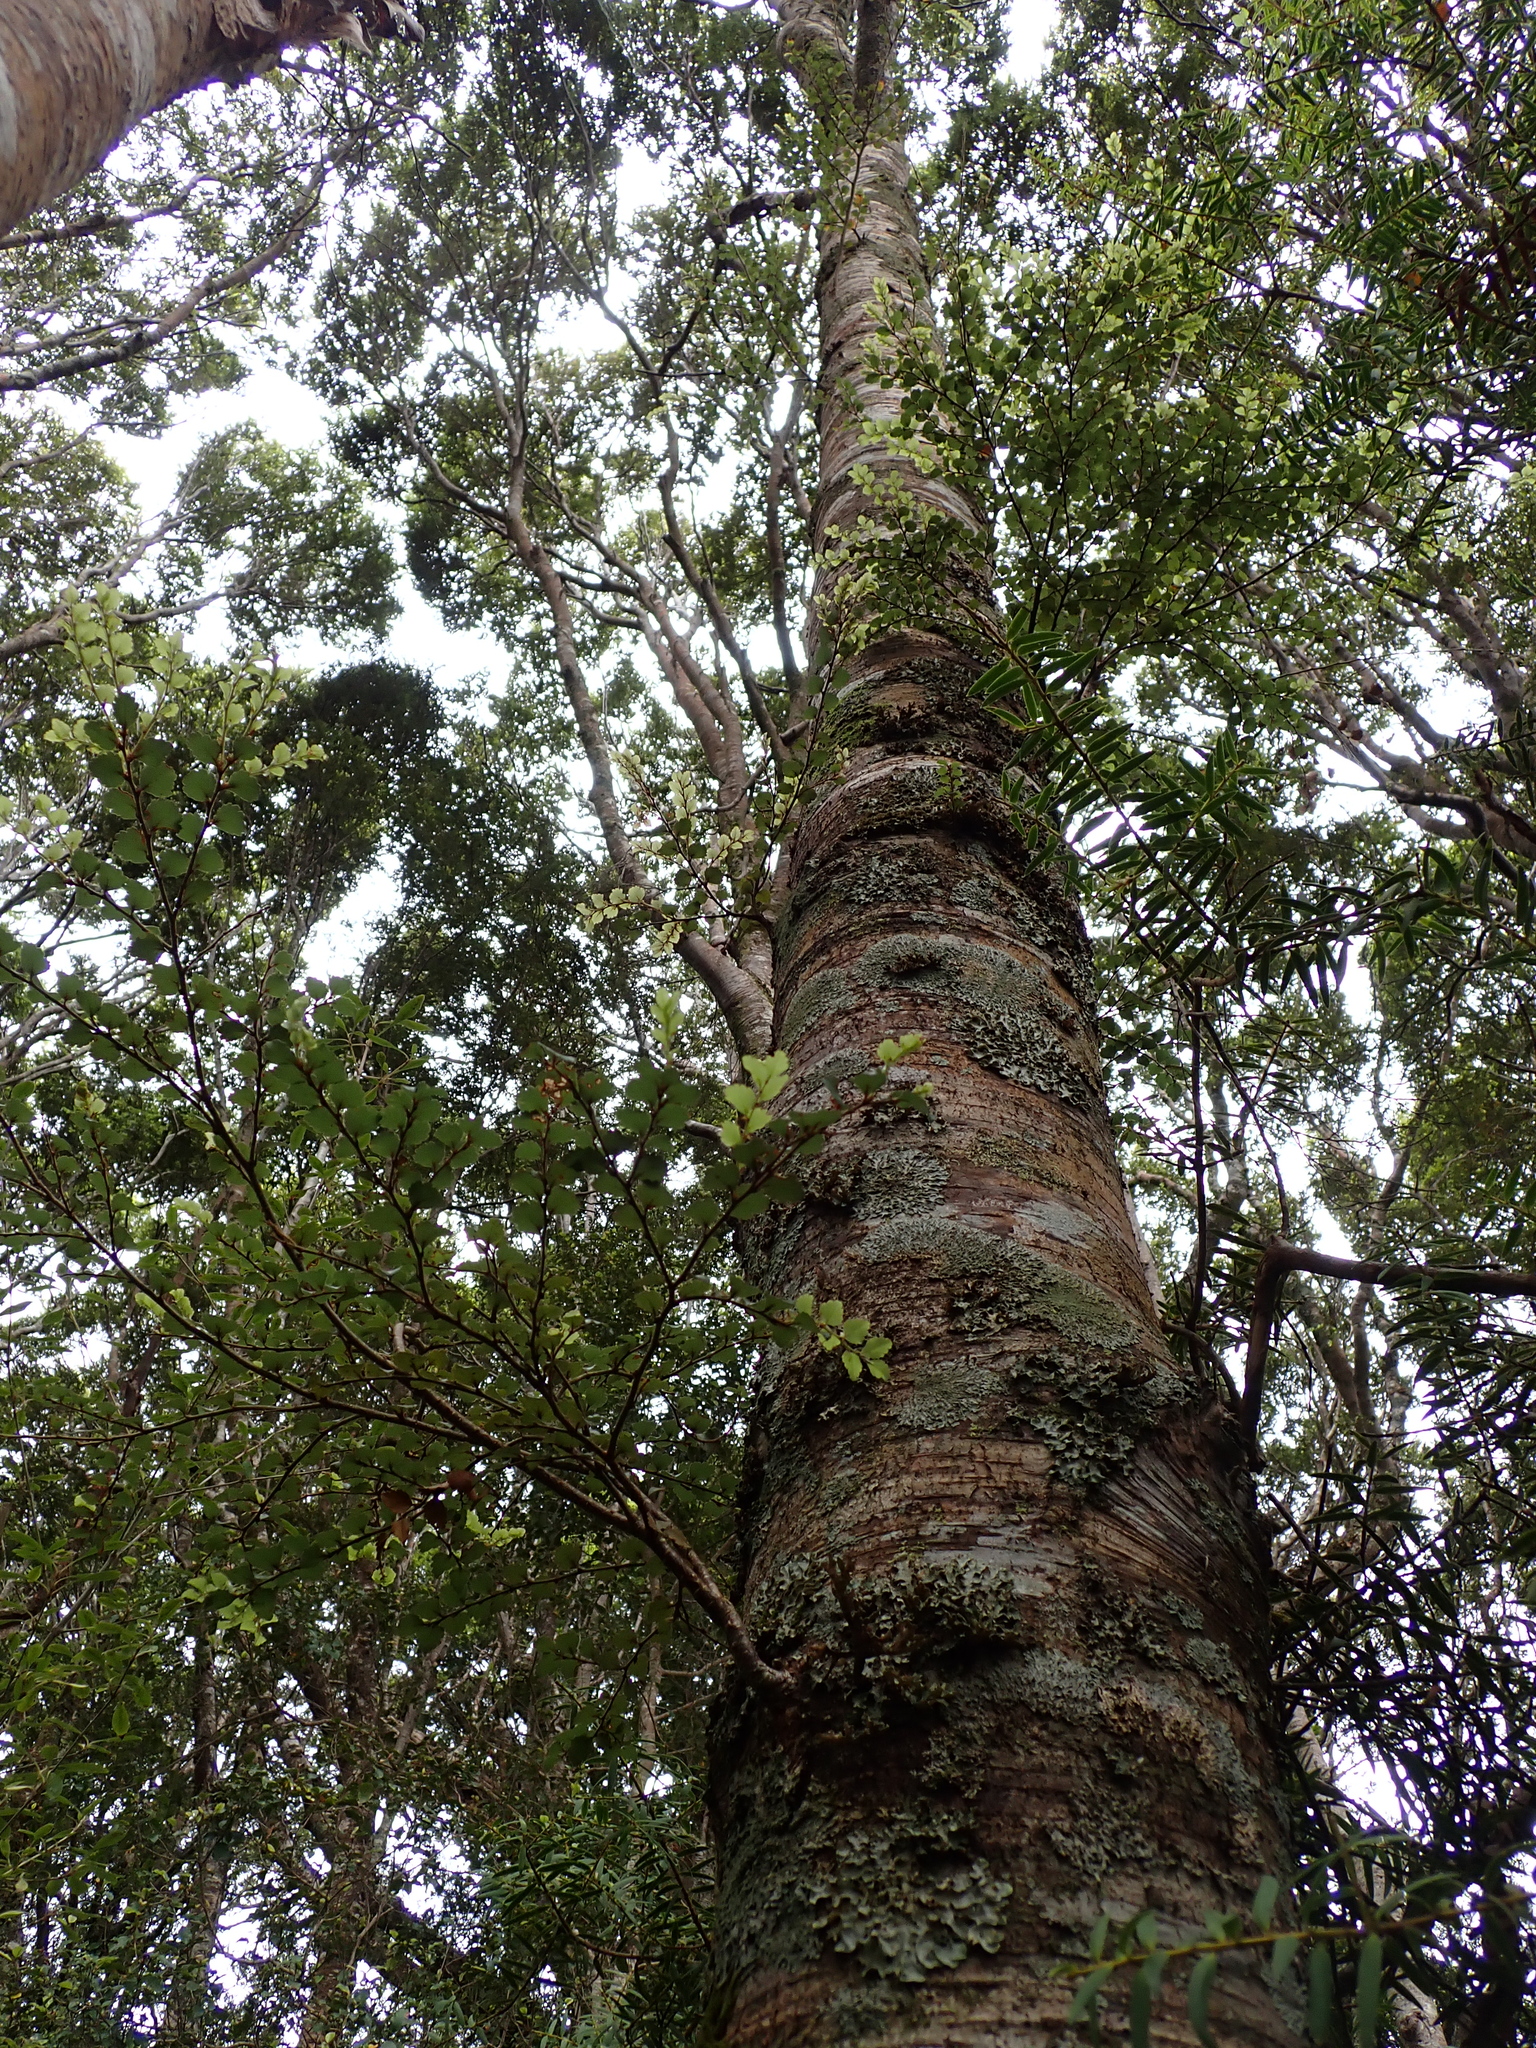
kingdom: Plantae
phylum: Tracheophyta
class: Magnoliopsida
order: Fagales
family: Nothofagaceae
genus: Nothofagus
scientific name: Nothofagus fusca
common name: Red beech
